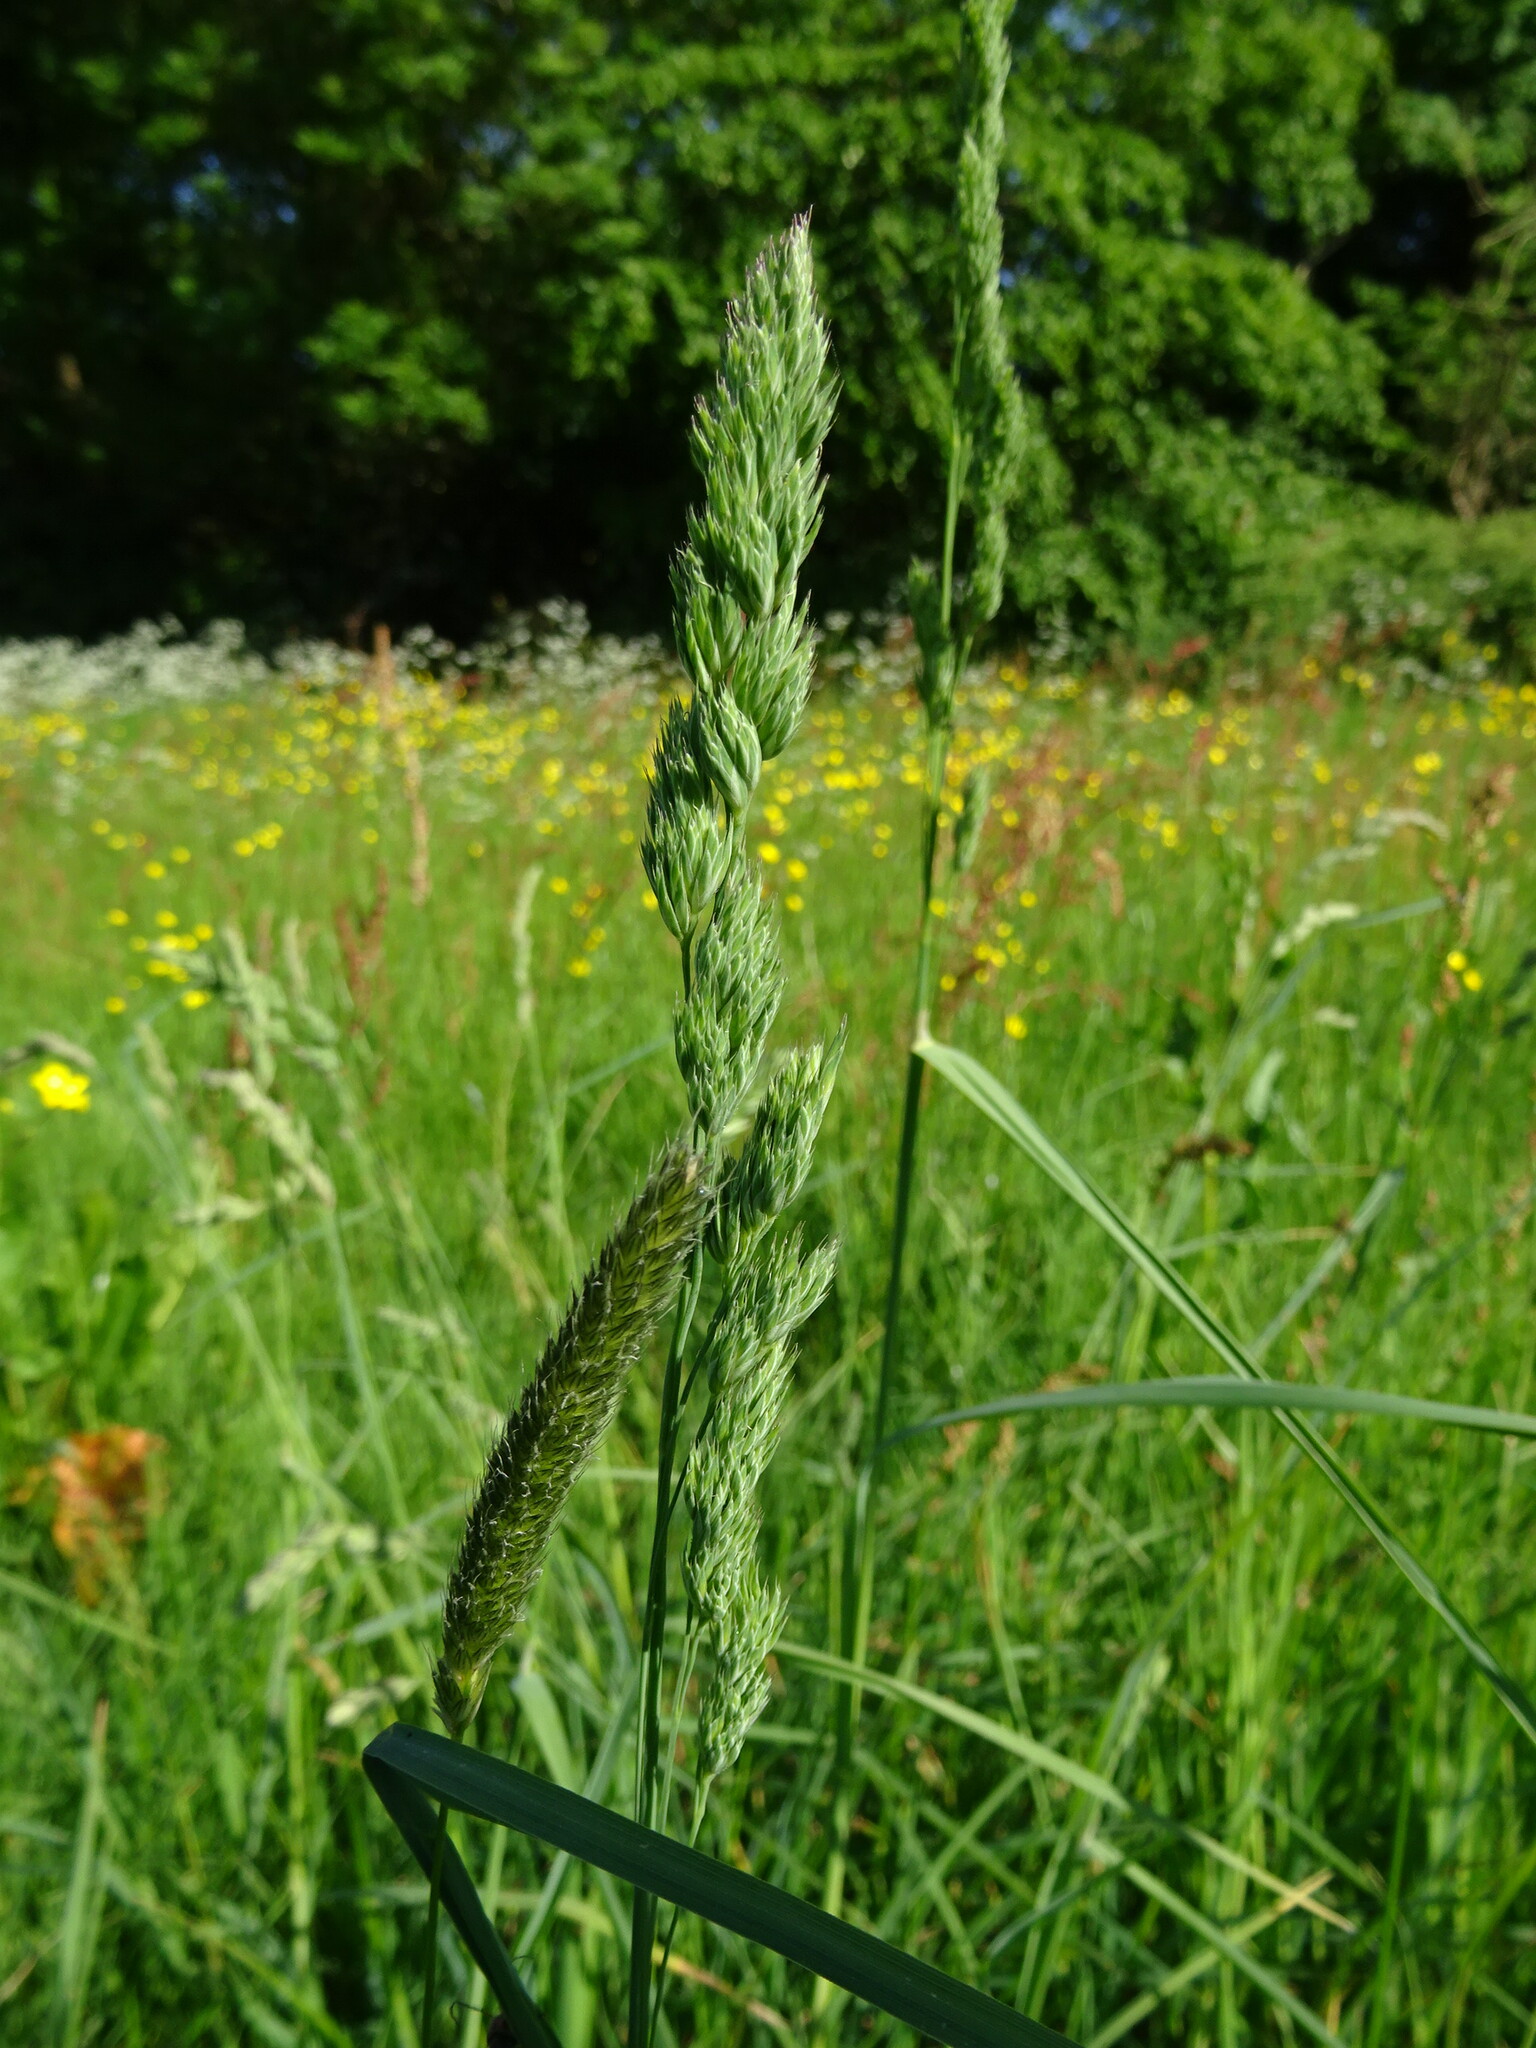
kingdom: Plantae
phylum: Tracheophyta
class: Liliopsida
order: Poales
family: Poaceae
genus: Dactylis
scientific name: Dactylis glomerata
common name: Orchardgrass
